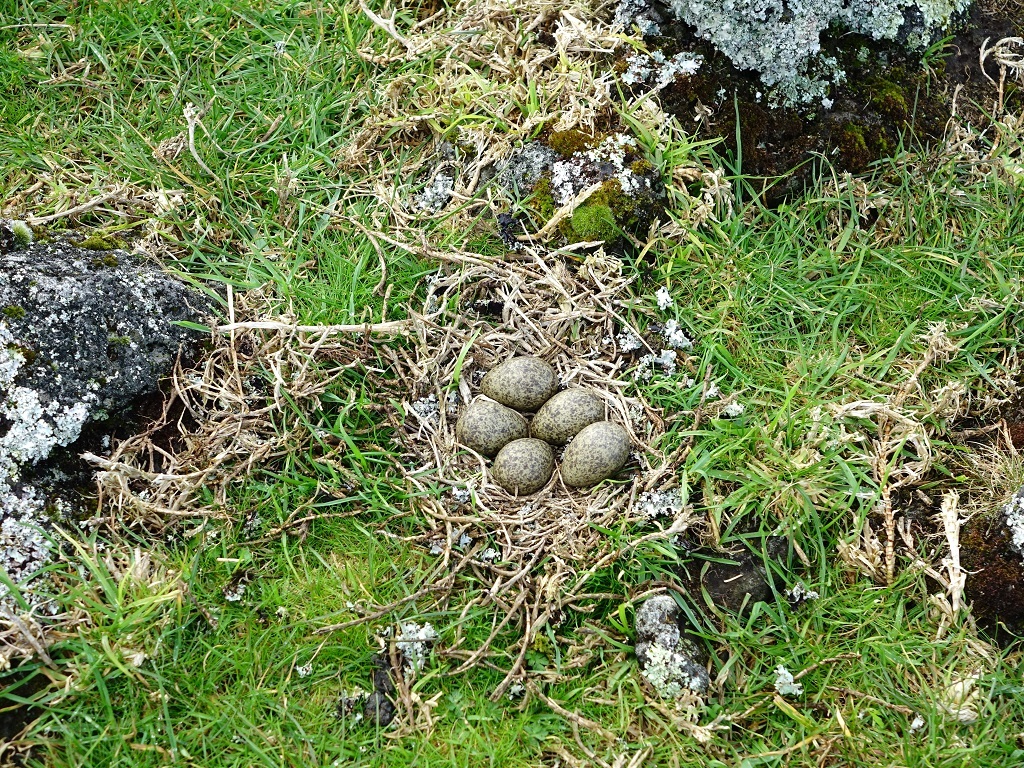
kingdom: Animalia
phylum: Chordata
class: Aves
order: Charadriiformes
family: Charadriidae
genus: Vanellus
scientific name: Vanellus miles
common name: Masked lapwing
